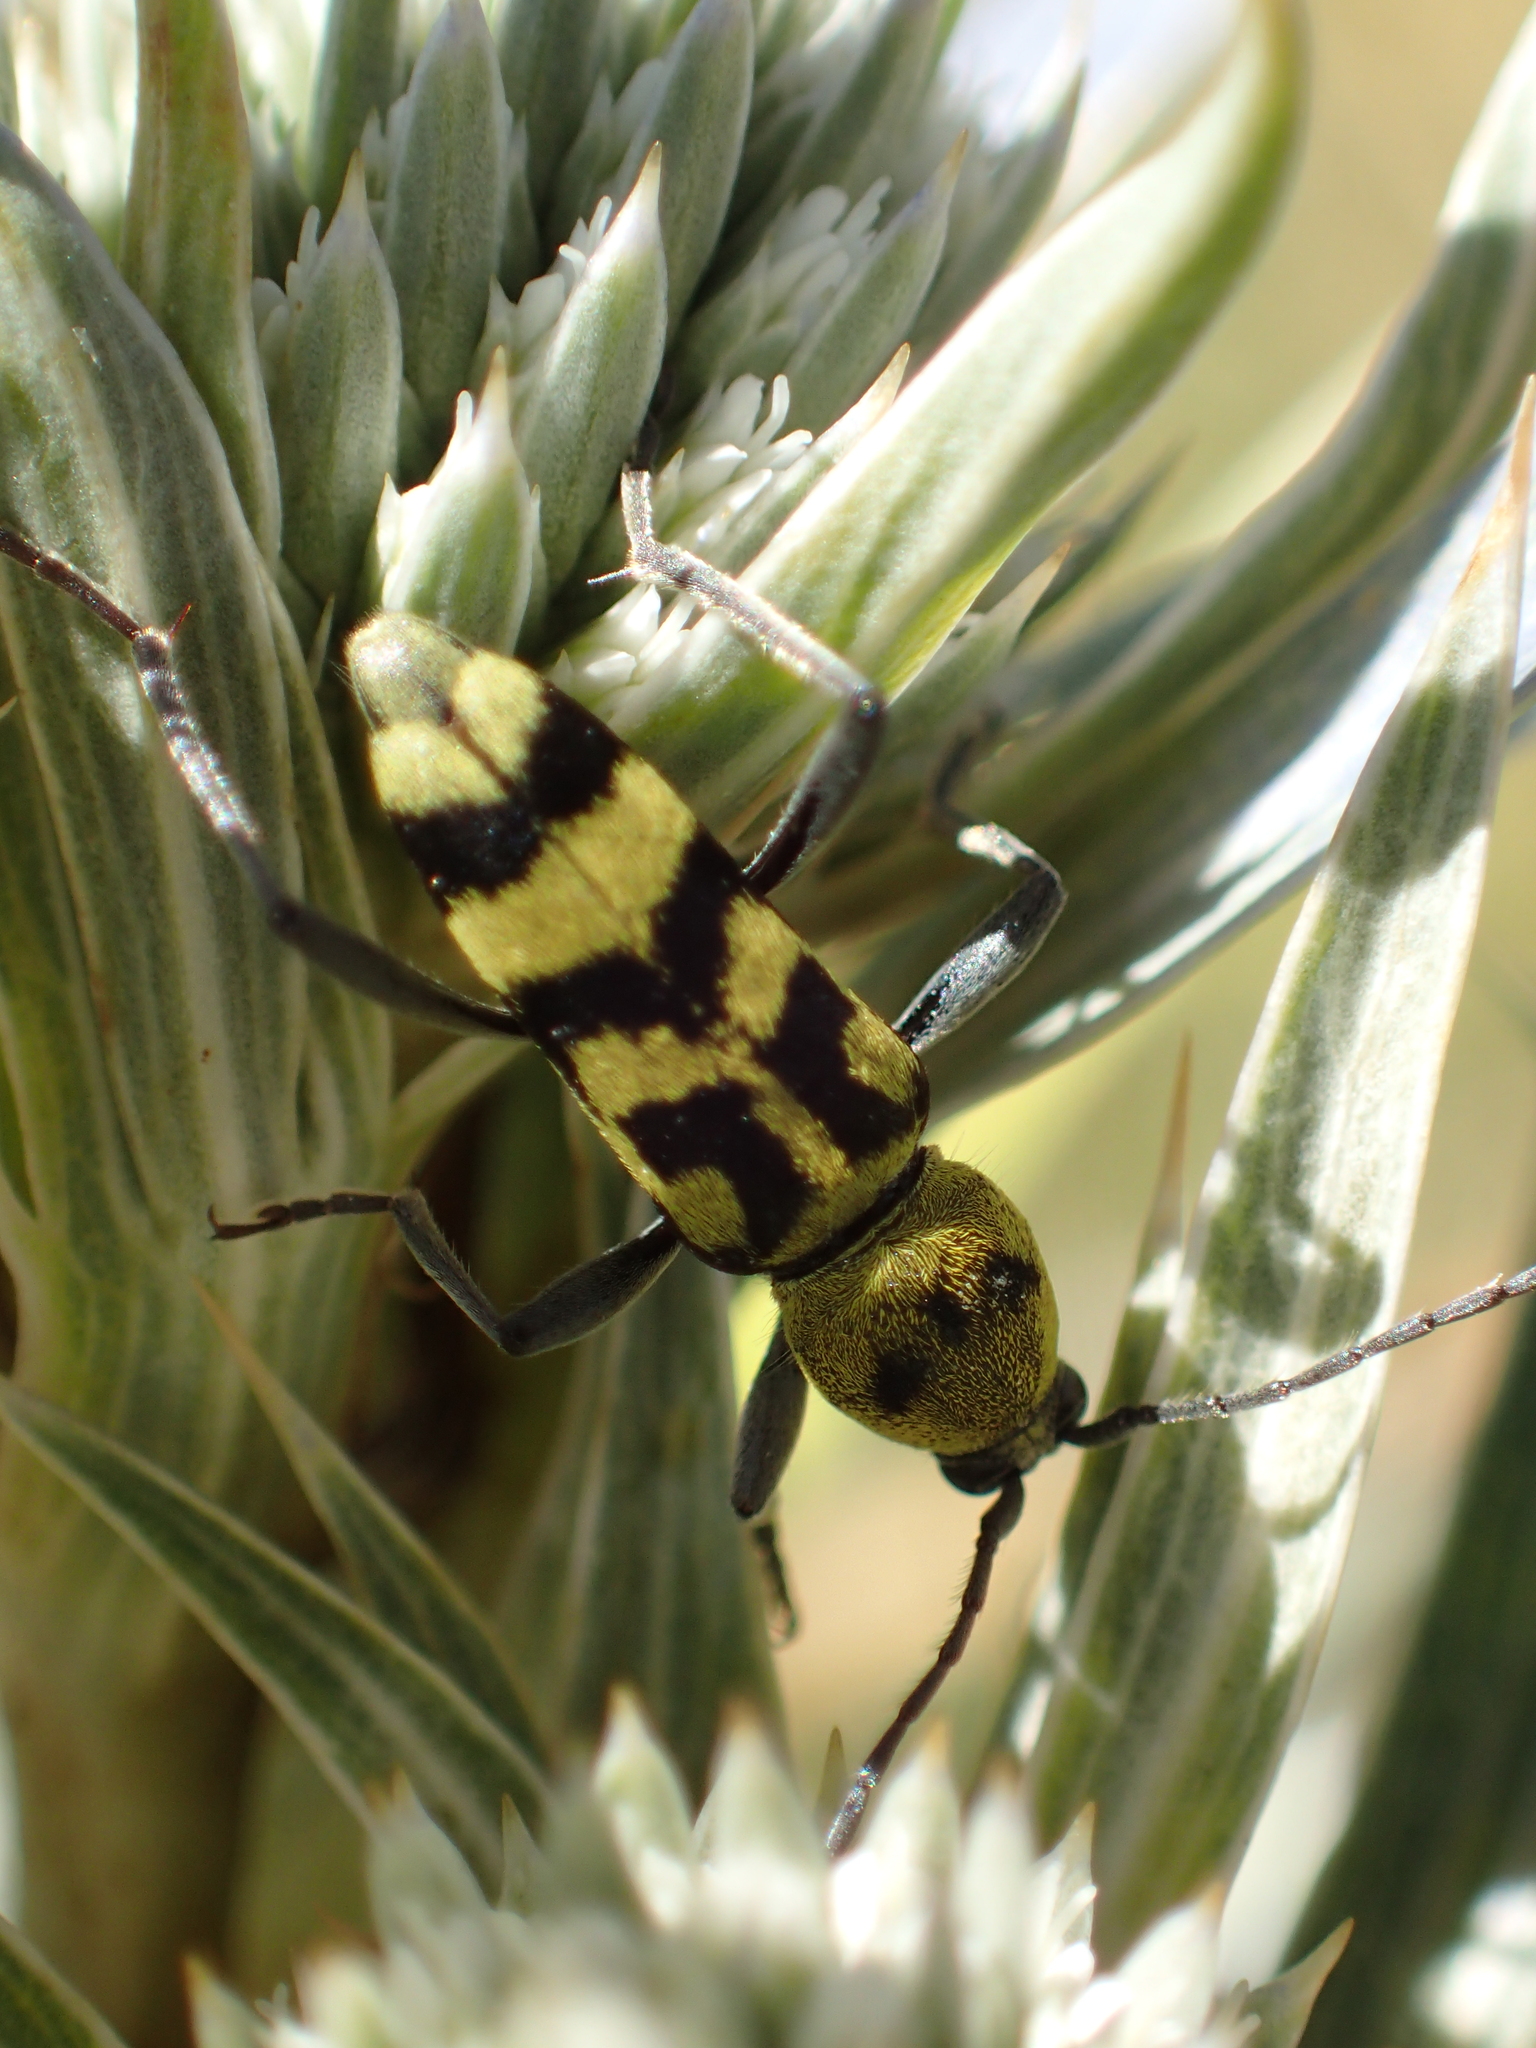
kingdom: Animalia
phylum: Arthropoda
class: Insecta
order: Coleoptera
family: Cerambycidae
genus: Chlorophorus
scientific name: Chlorophorus varius
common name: Grape wood borer
